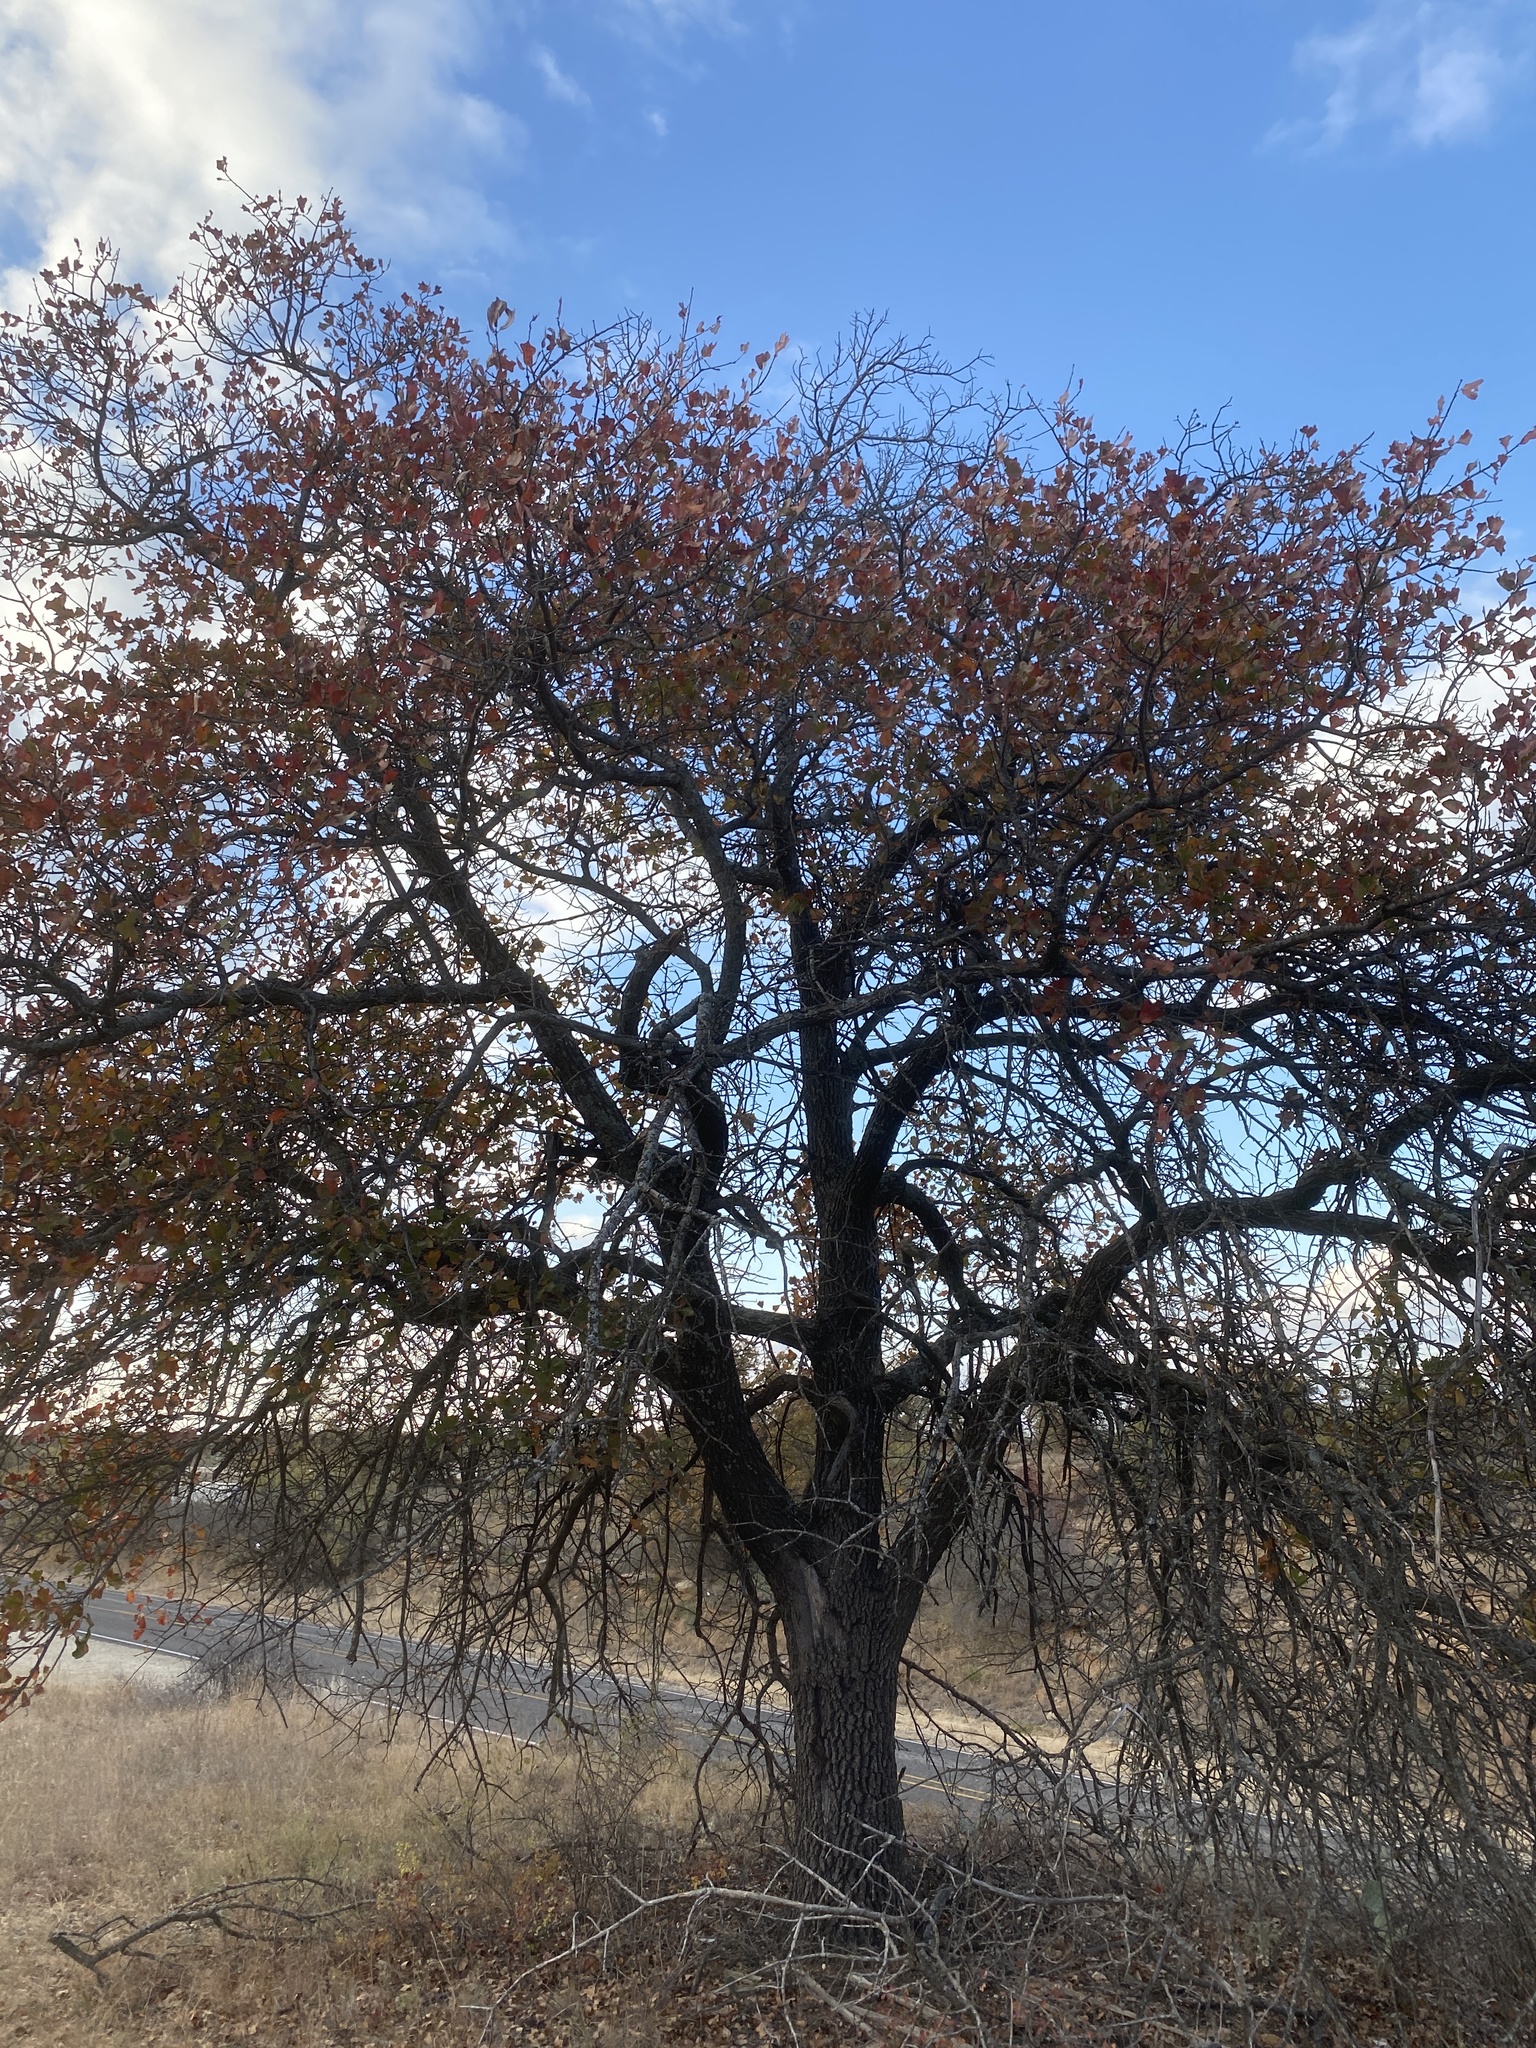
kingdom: Plantae
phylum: Tracheophyta
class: Magnoliopsida
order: Fagales
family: Fagaceae
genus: Quercus
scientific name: Quercus marilandica
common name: Blackjack oak
